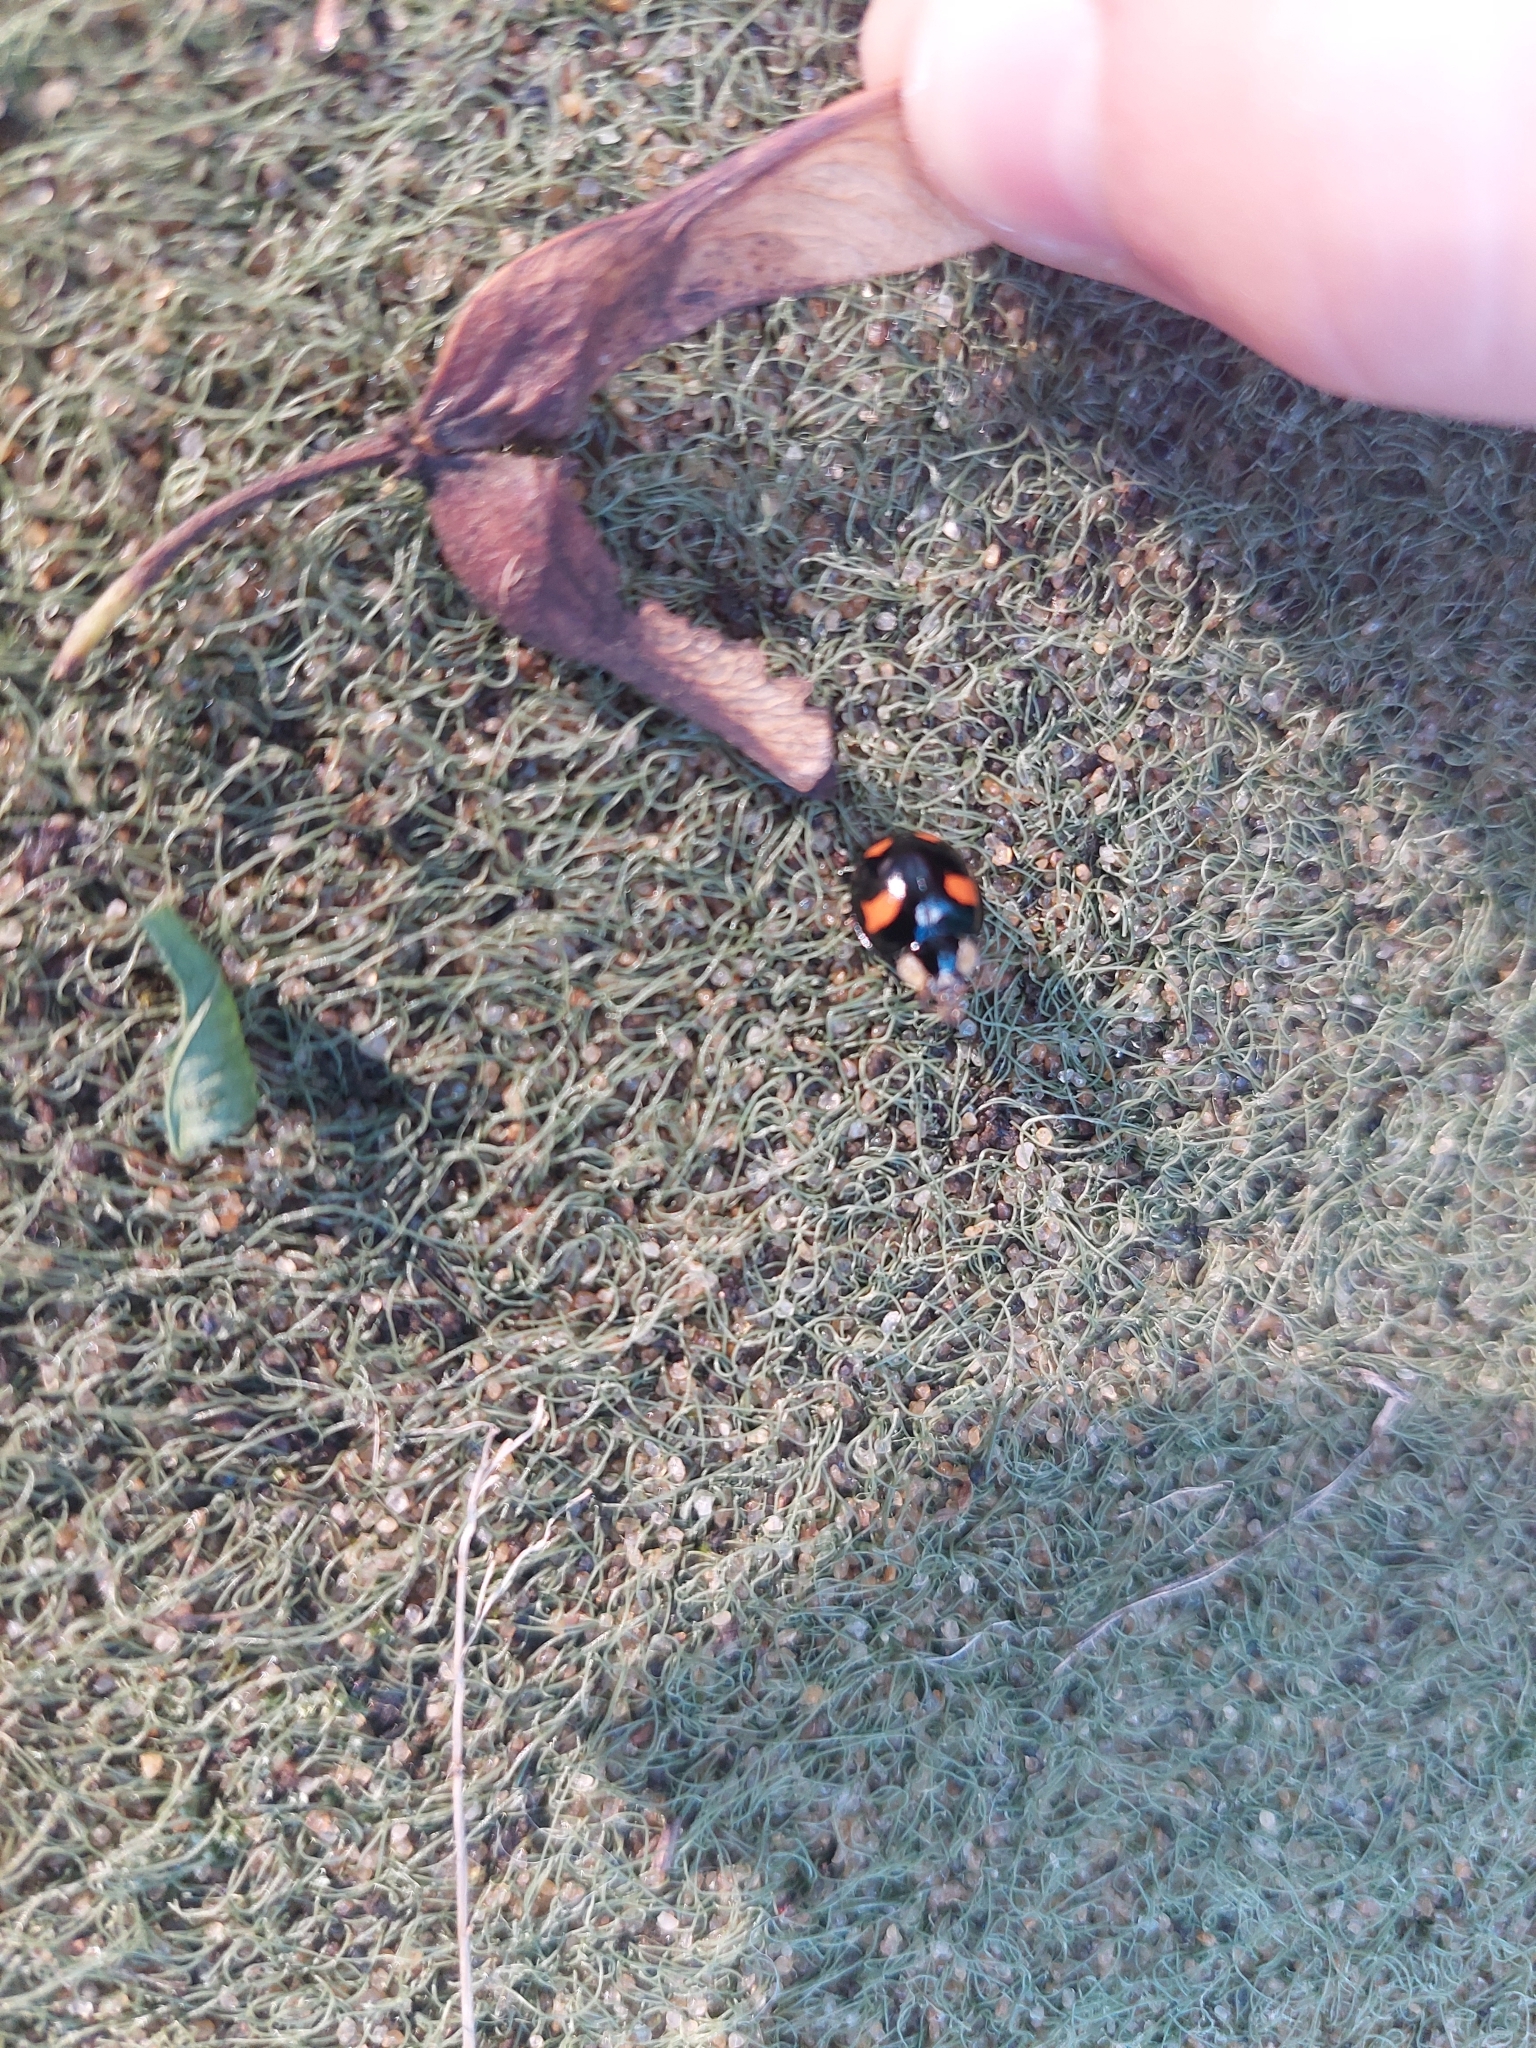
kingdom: Animalia
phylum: Arthropoda
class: Insecta
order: Coleoptera
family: Coccinellidae
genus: Harmonia
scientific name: Harmonia axyridis
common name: Harlequin ladybird
